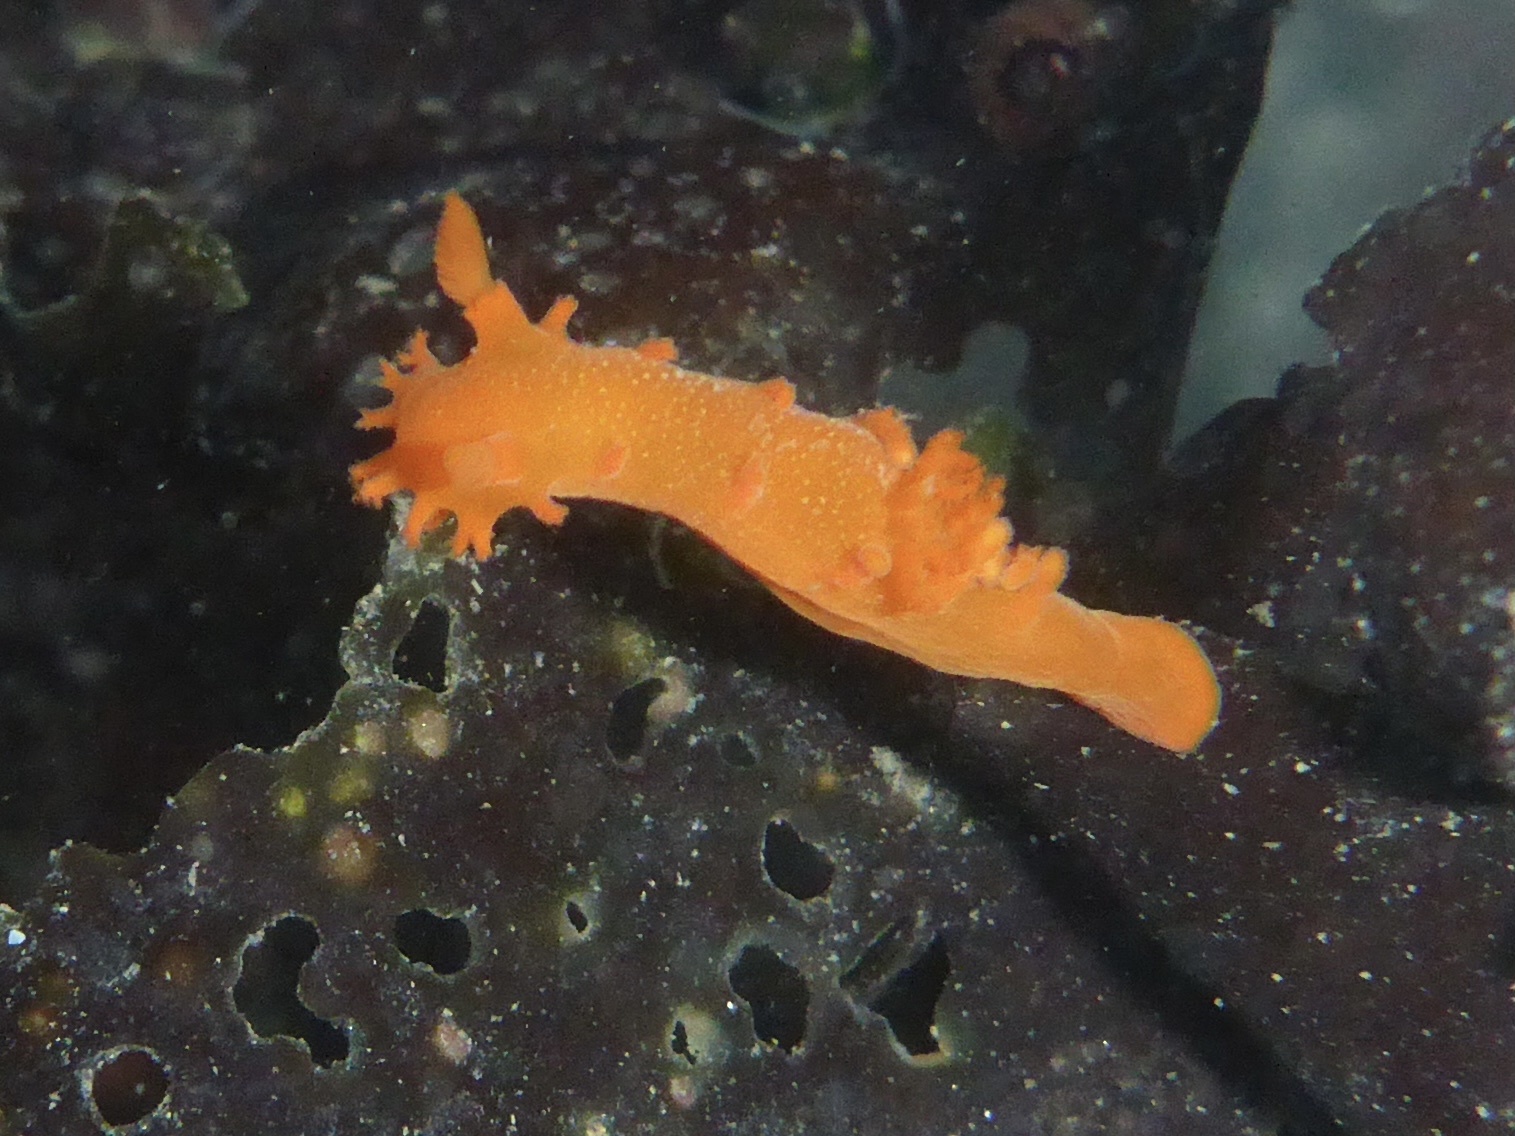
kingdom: Animalia
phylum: Mollusca
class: Gastropoda
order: Nudibranchia
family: Polyceridae
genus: Triopha
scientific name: Triopha maculata
